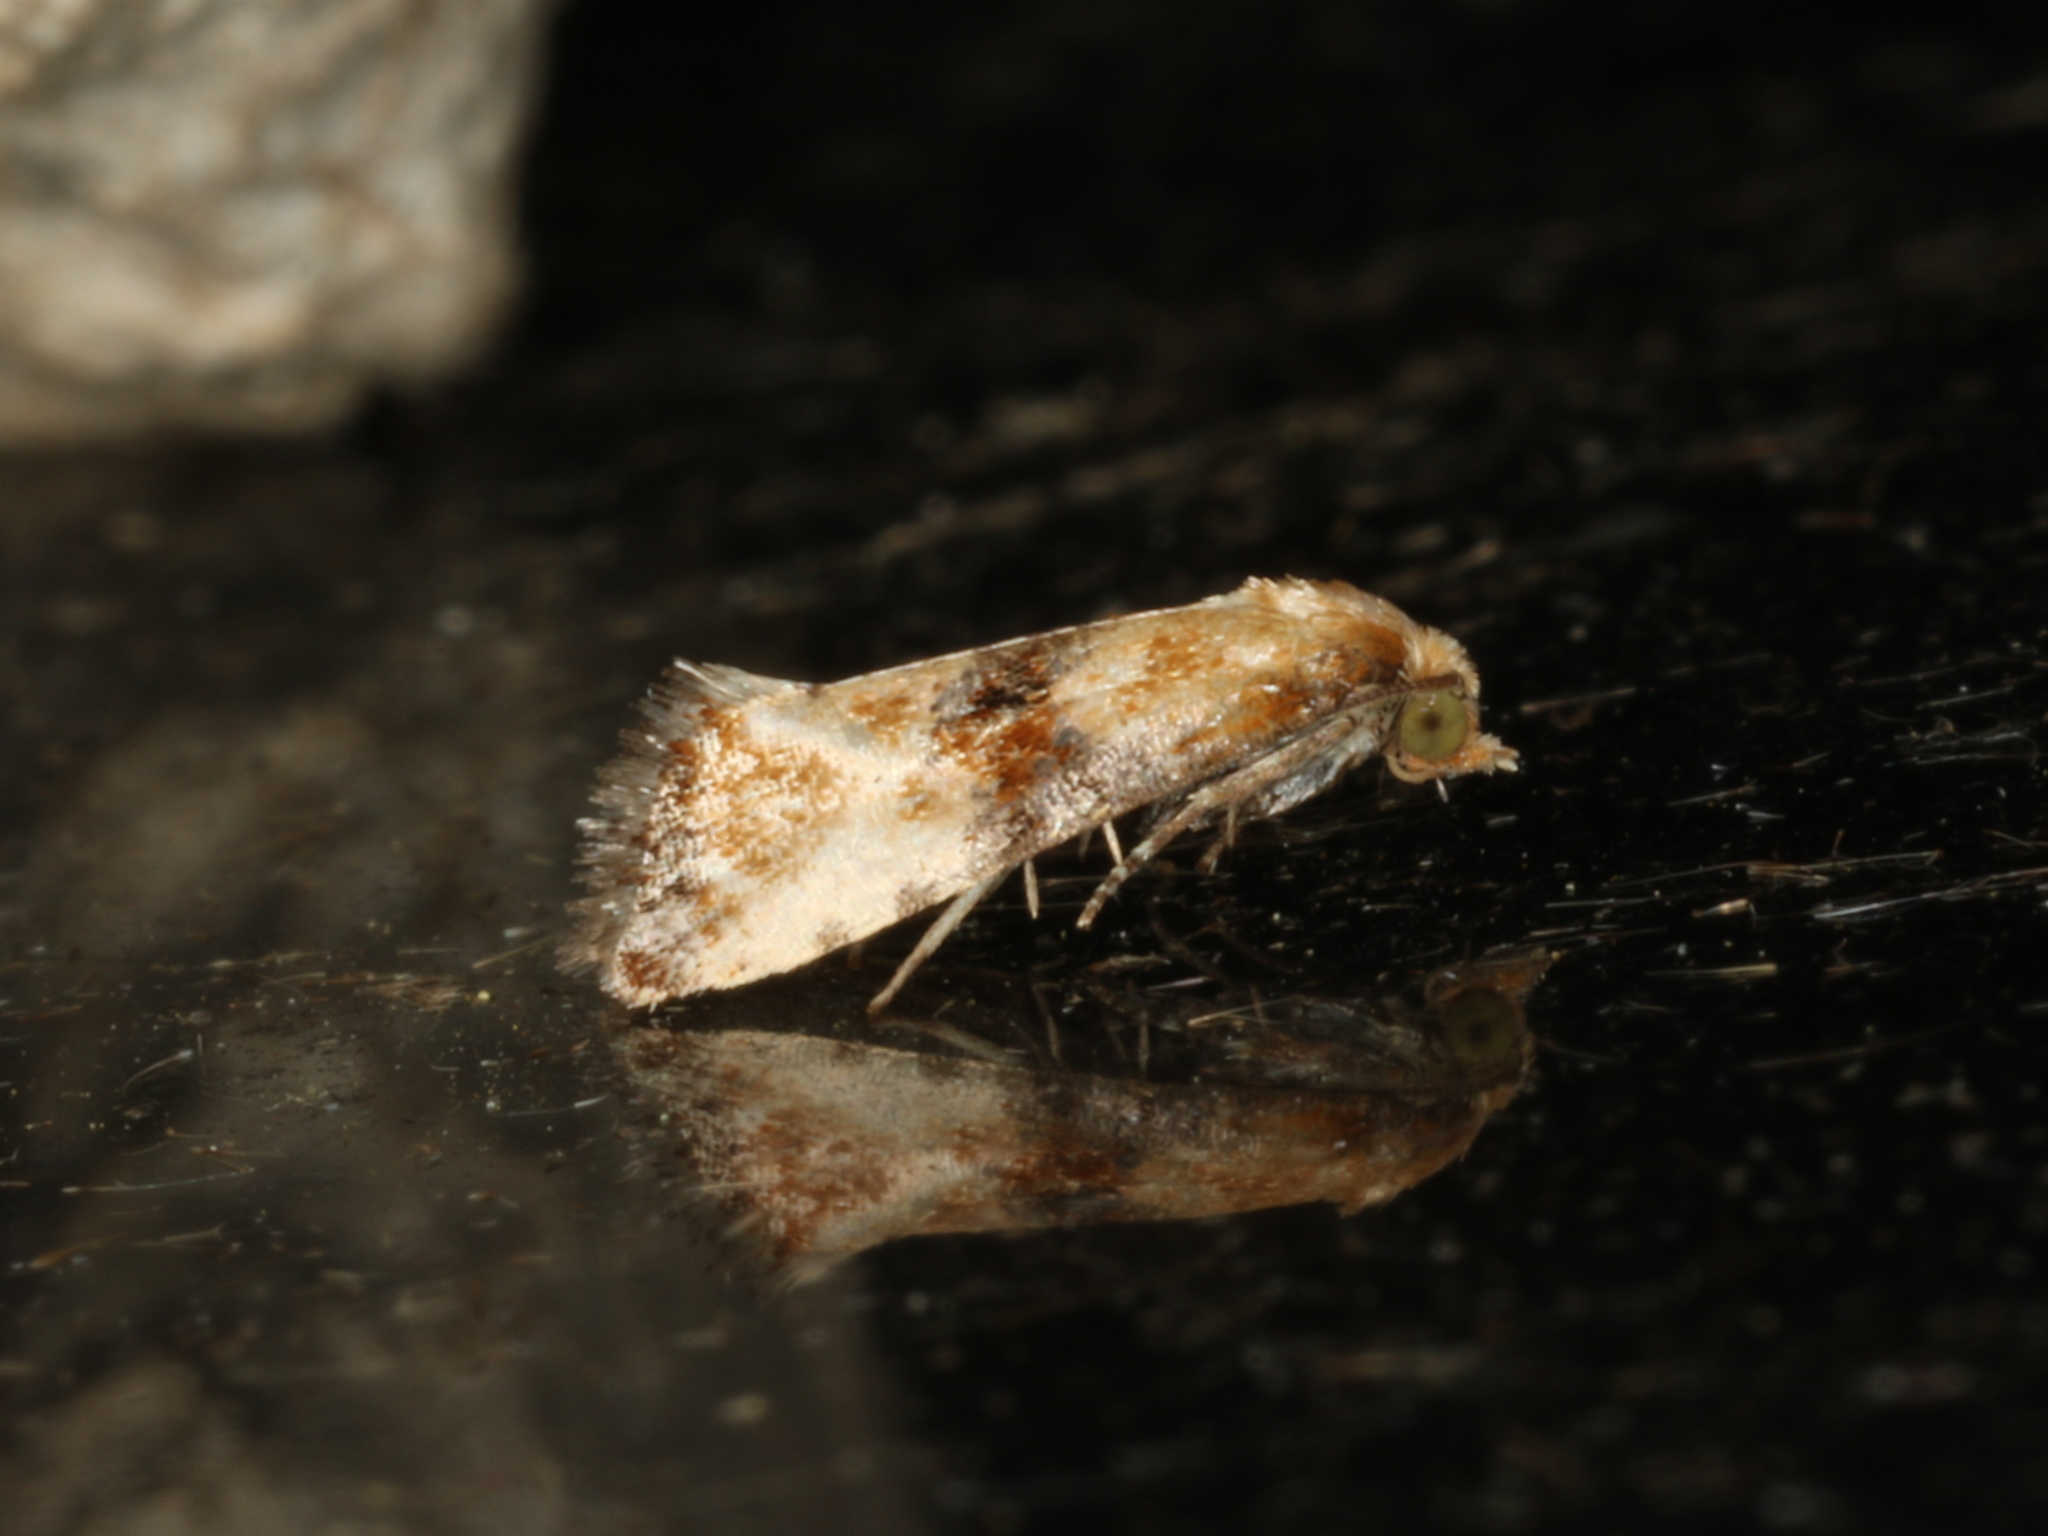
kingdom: Animalia
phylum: Arthropoda
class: Insecta
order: Lepidoptera
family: Tortricidae
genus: Thyraylia
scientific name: Thyraylia nana
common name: Birch conch
